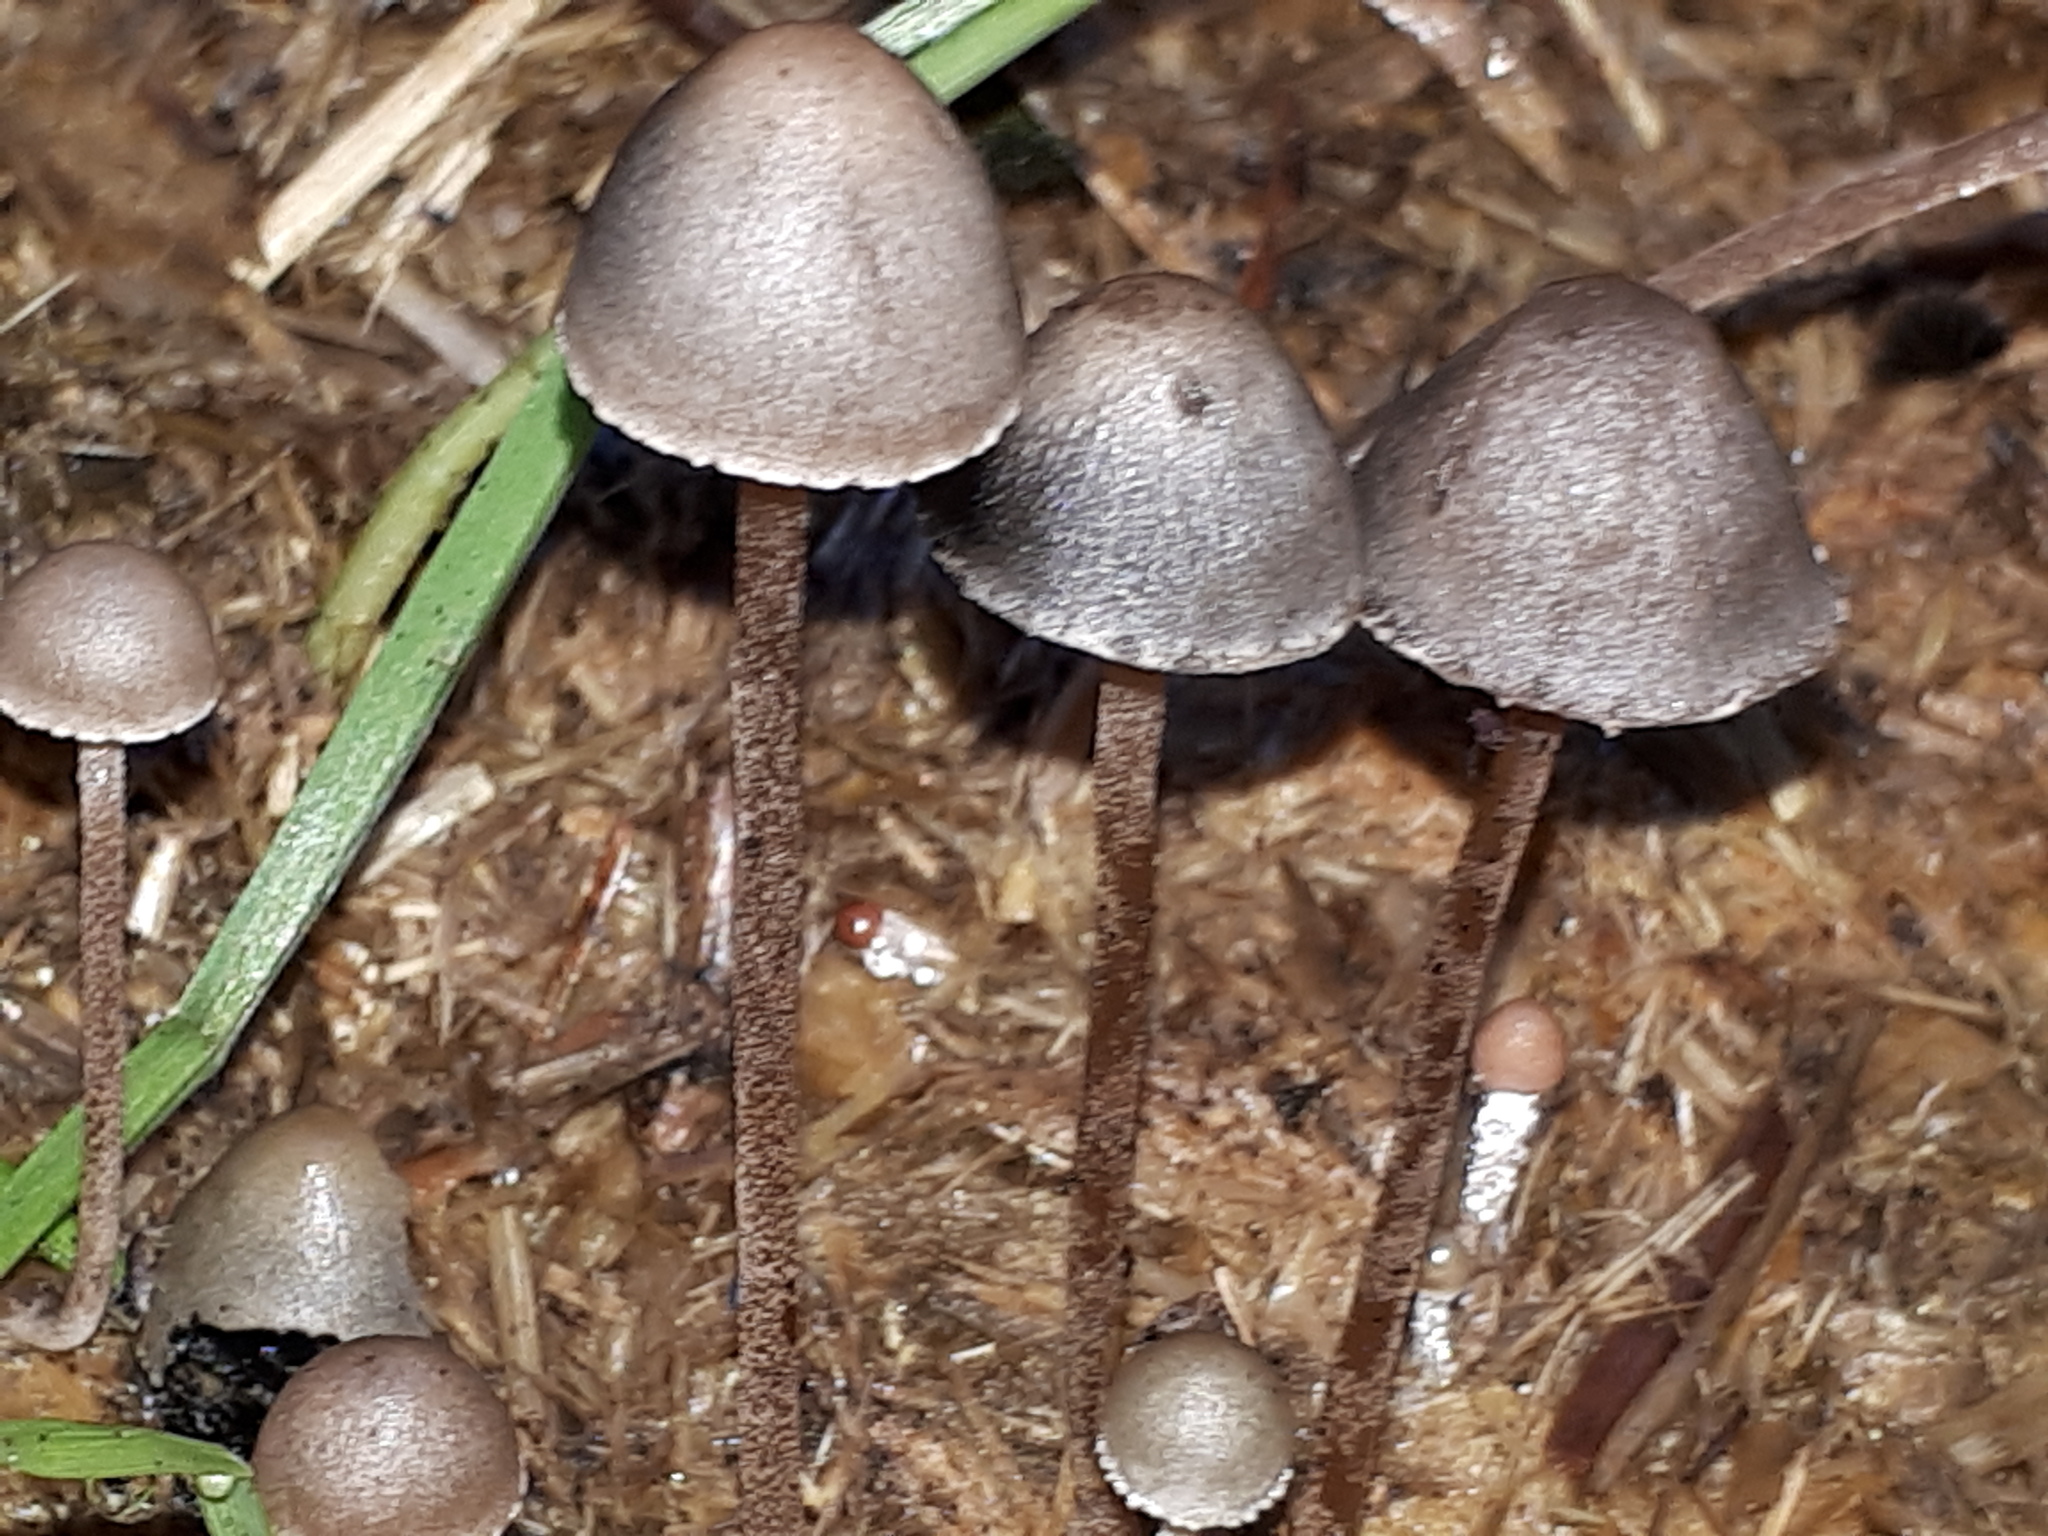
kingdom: Fungi
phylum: Basidiomycota
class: Agaricomycetes
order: Agaricales
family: Bolbitiaceae
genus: Panaeolus
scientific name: Panaeolus papilionaceus
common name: Petticoat mottlegill
